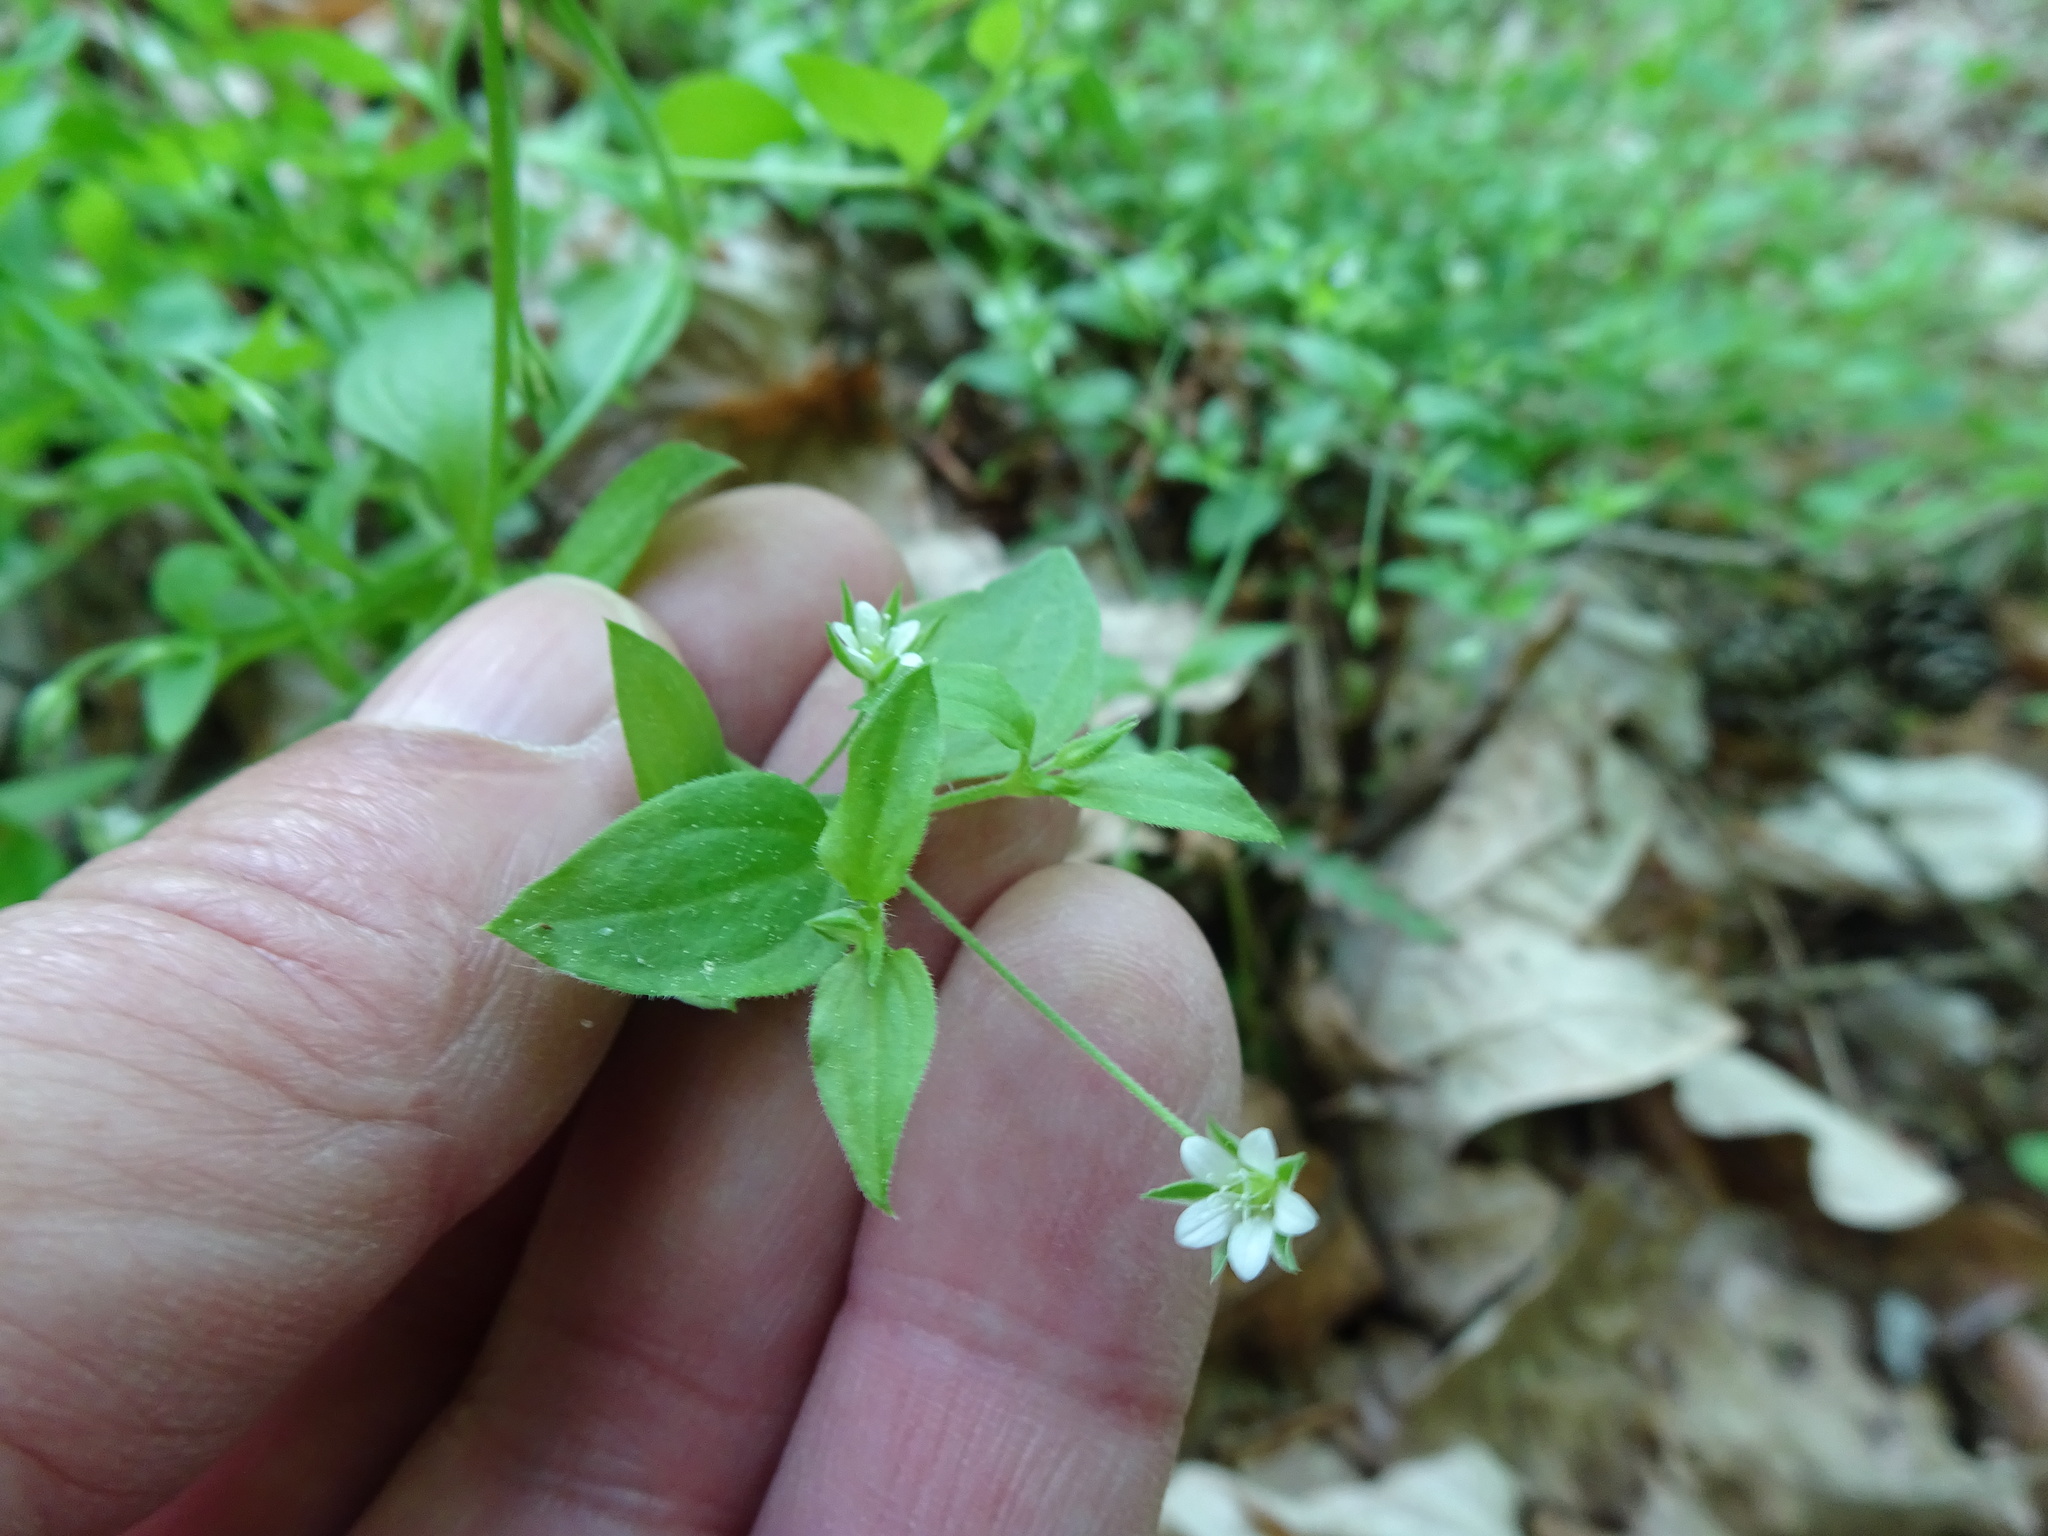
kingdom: Plantae
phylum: Tracheophyta
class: Magnoliopsida
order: Caryophyllales
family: Caryophyllaceae
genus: Moehringia
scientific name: Moehringia trinervia
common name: Three-nerved sandwort
